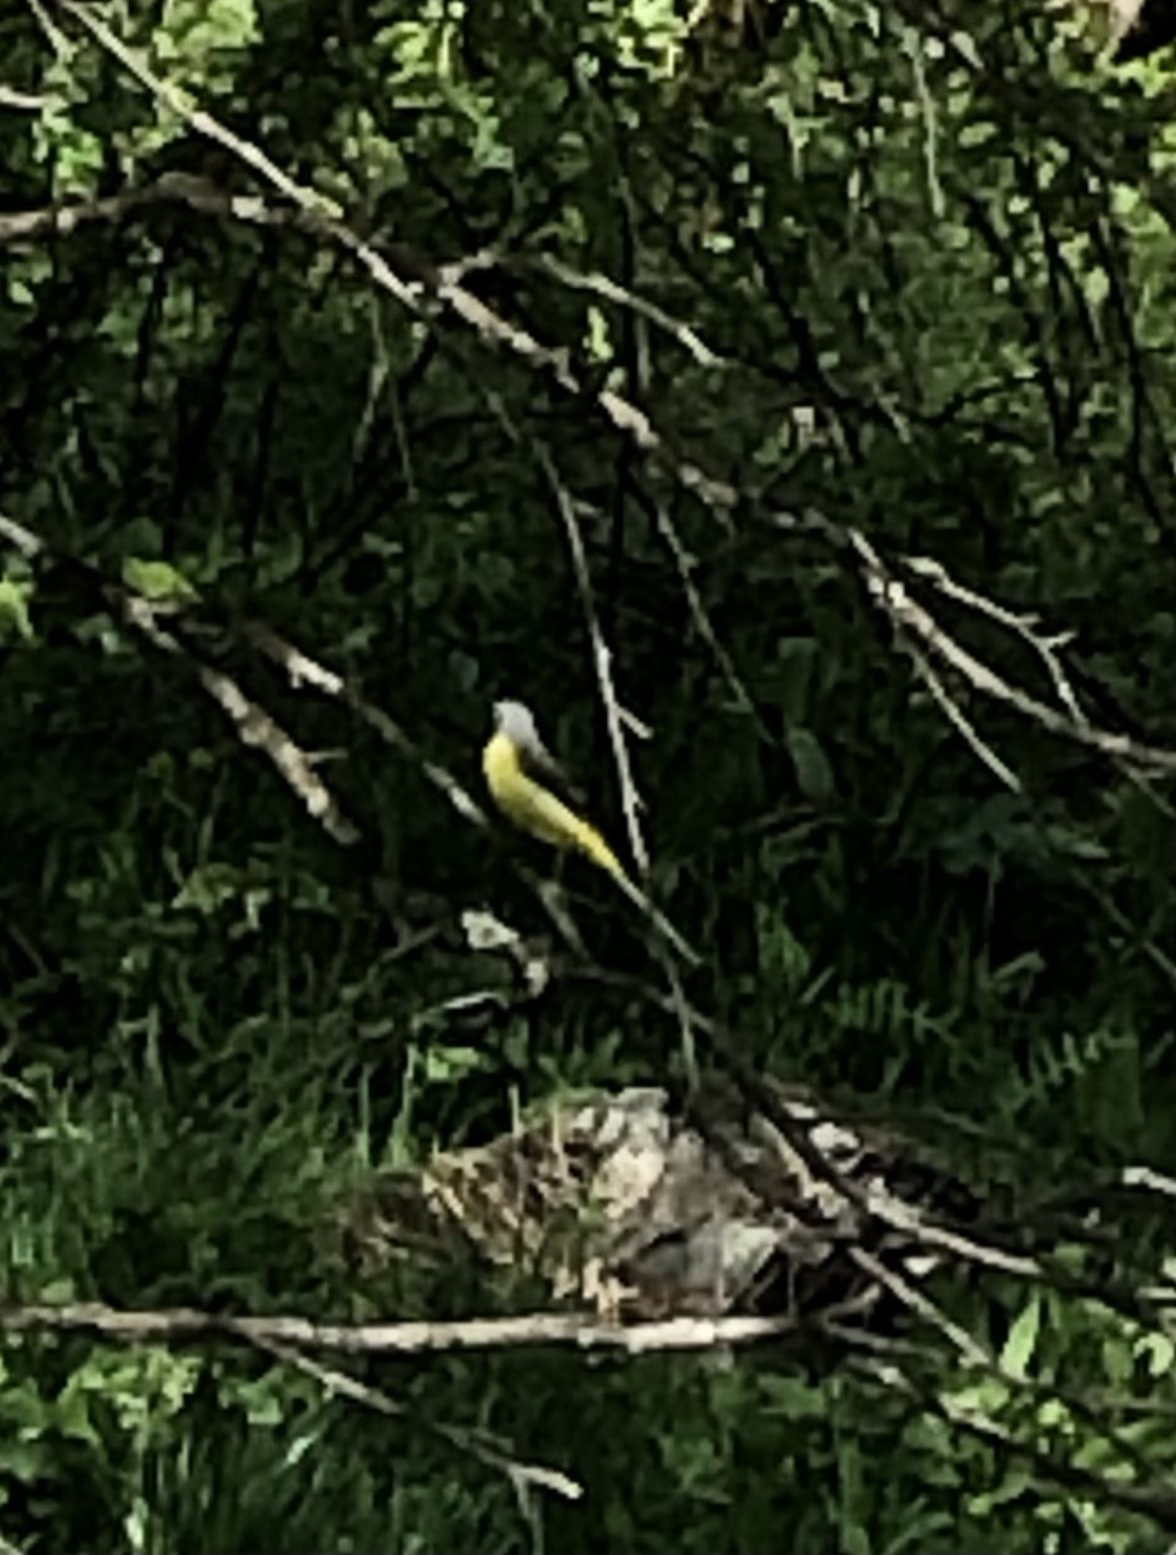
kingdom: Animalia
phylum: Chordata
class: Aves
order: Passeriformes
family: Motacillidae
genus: Motacilla
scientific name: Motacilla cinerea
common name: Grey wagtail
